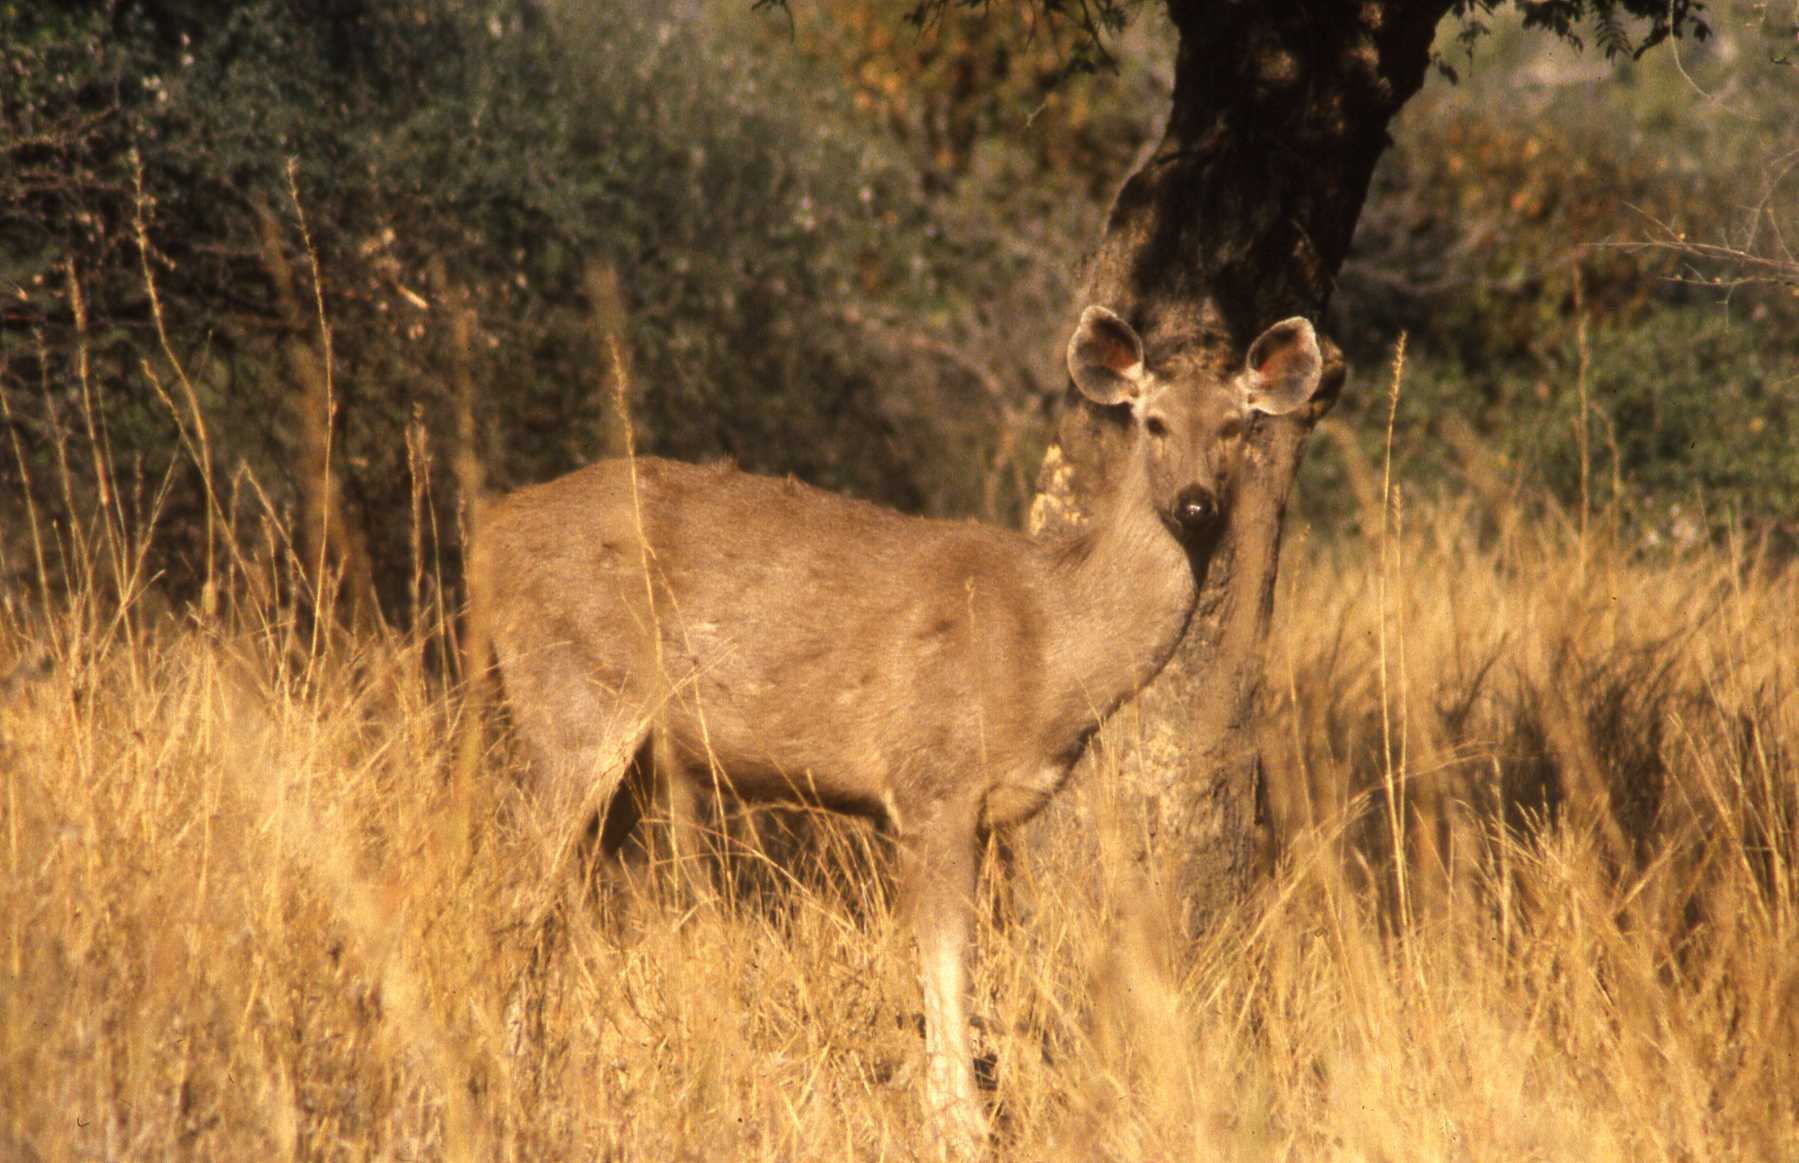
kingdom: Animalia
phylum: Chordata
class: Mammalia
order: Artiodactyla
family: Cervidae
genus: Rusa
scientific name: Rusa unicolor
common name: Sambar
